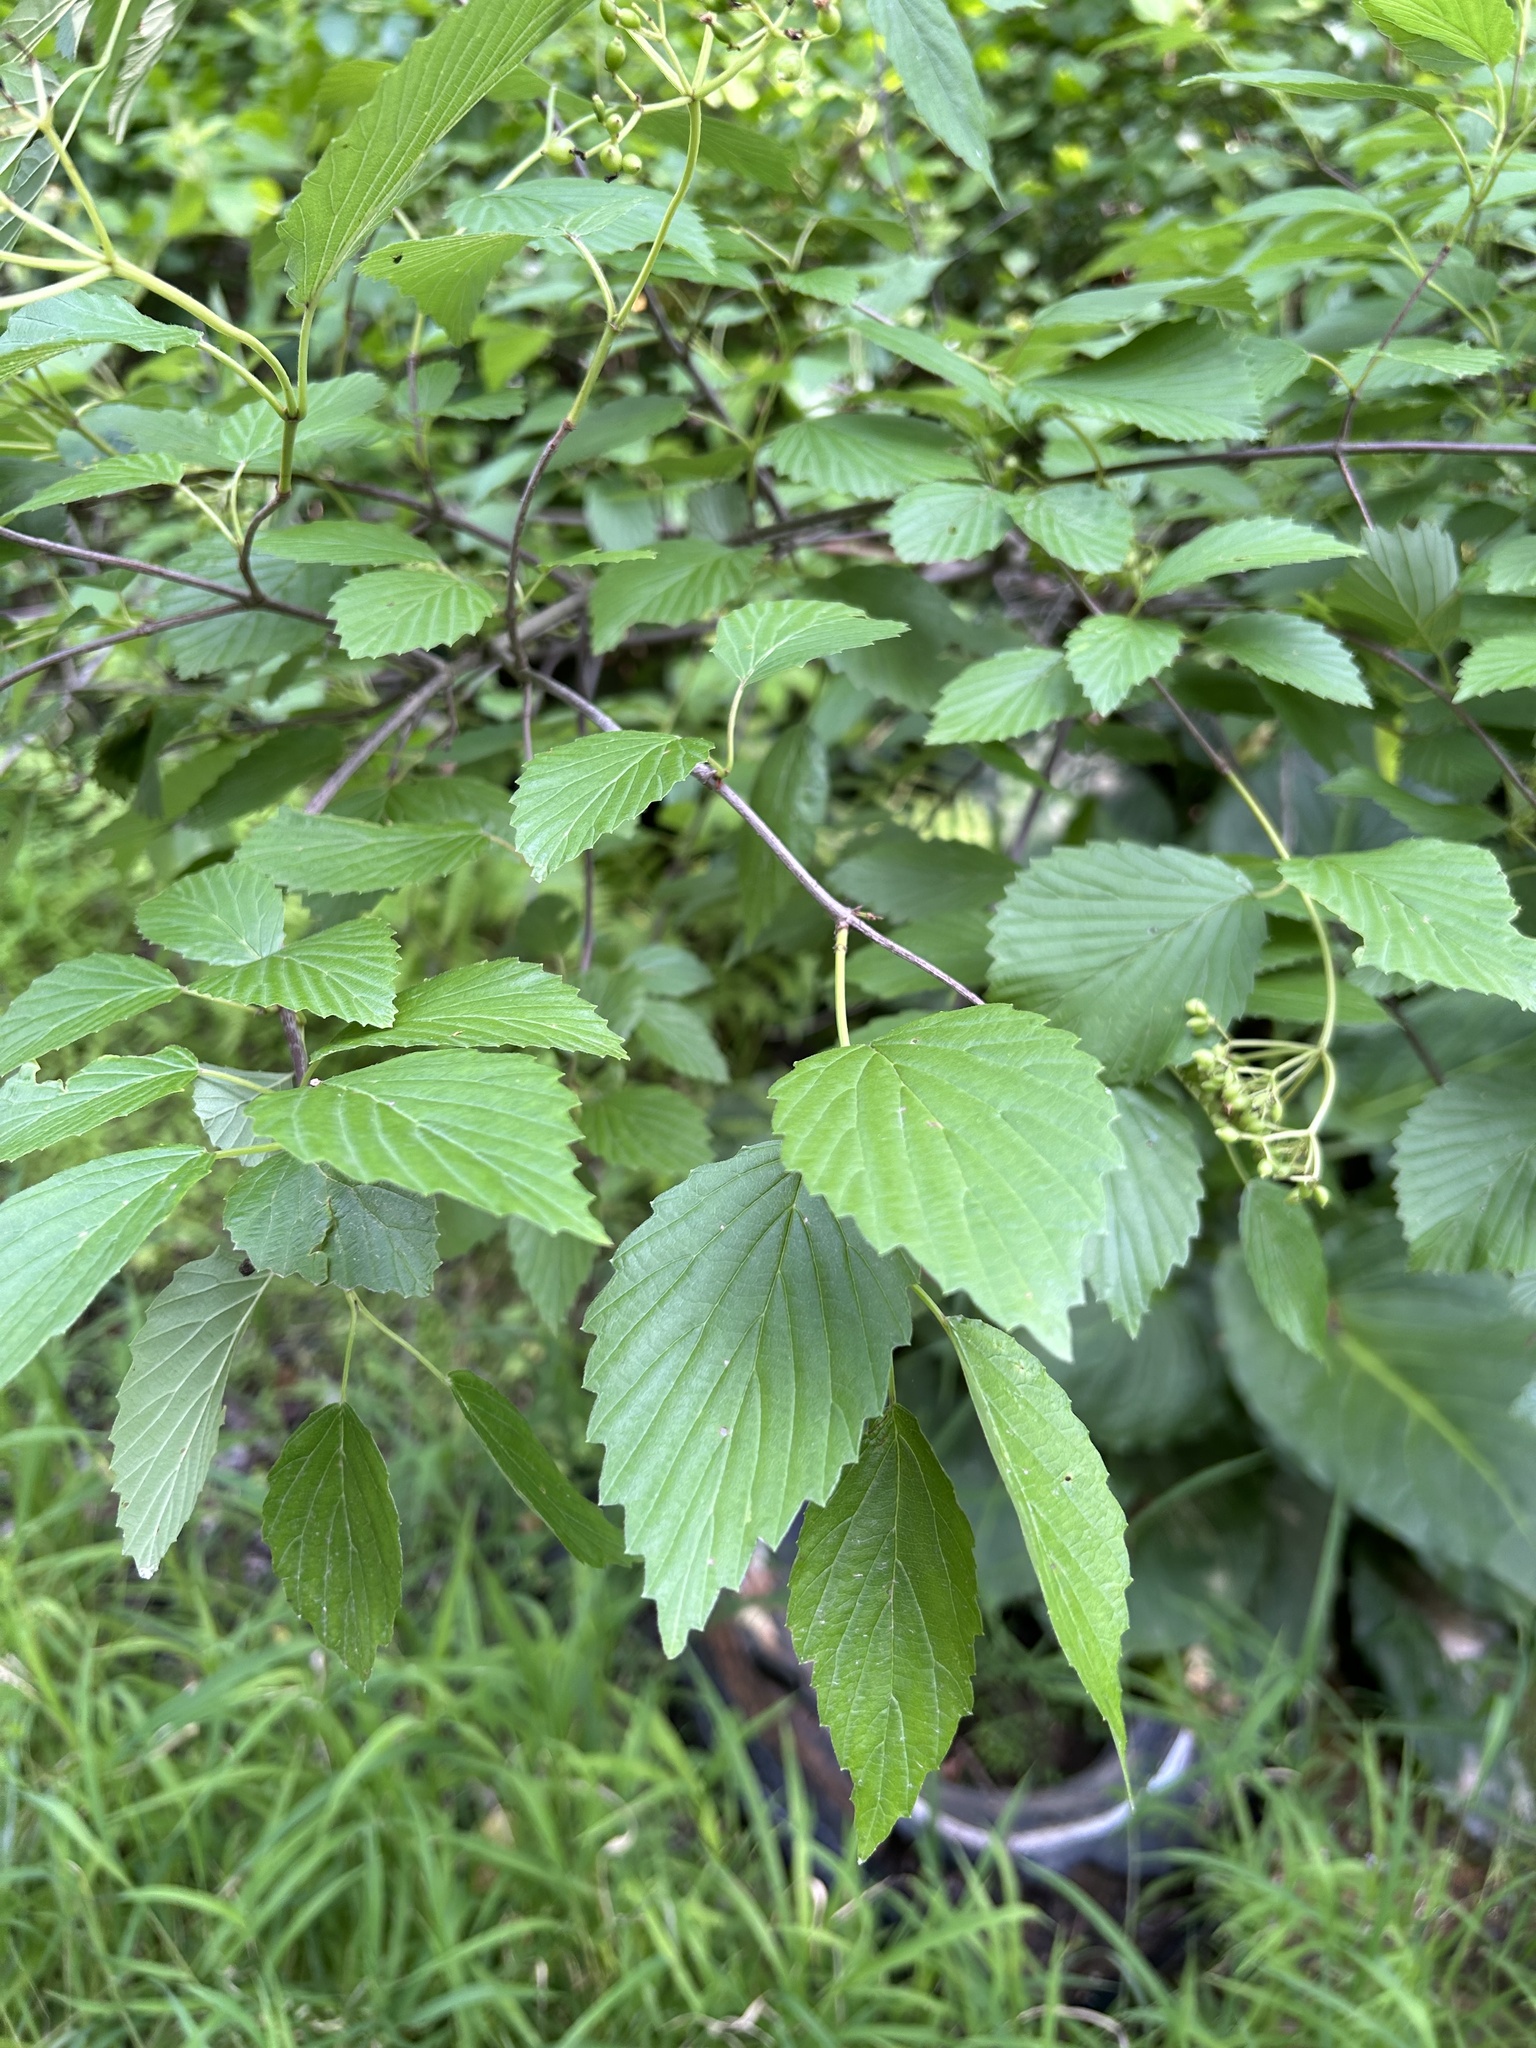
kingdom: Plantae
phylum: Tracheophyta
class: Magnoliopsida
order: Dipsacales
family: Viburnaceae
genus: Viburnum
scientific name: Viburnum dentatum
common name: Arrow-wood
